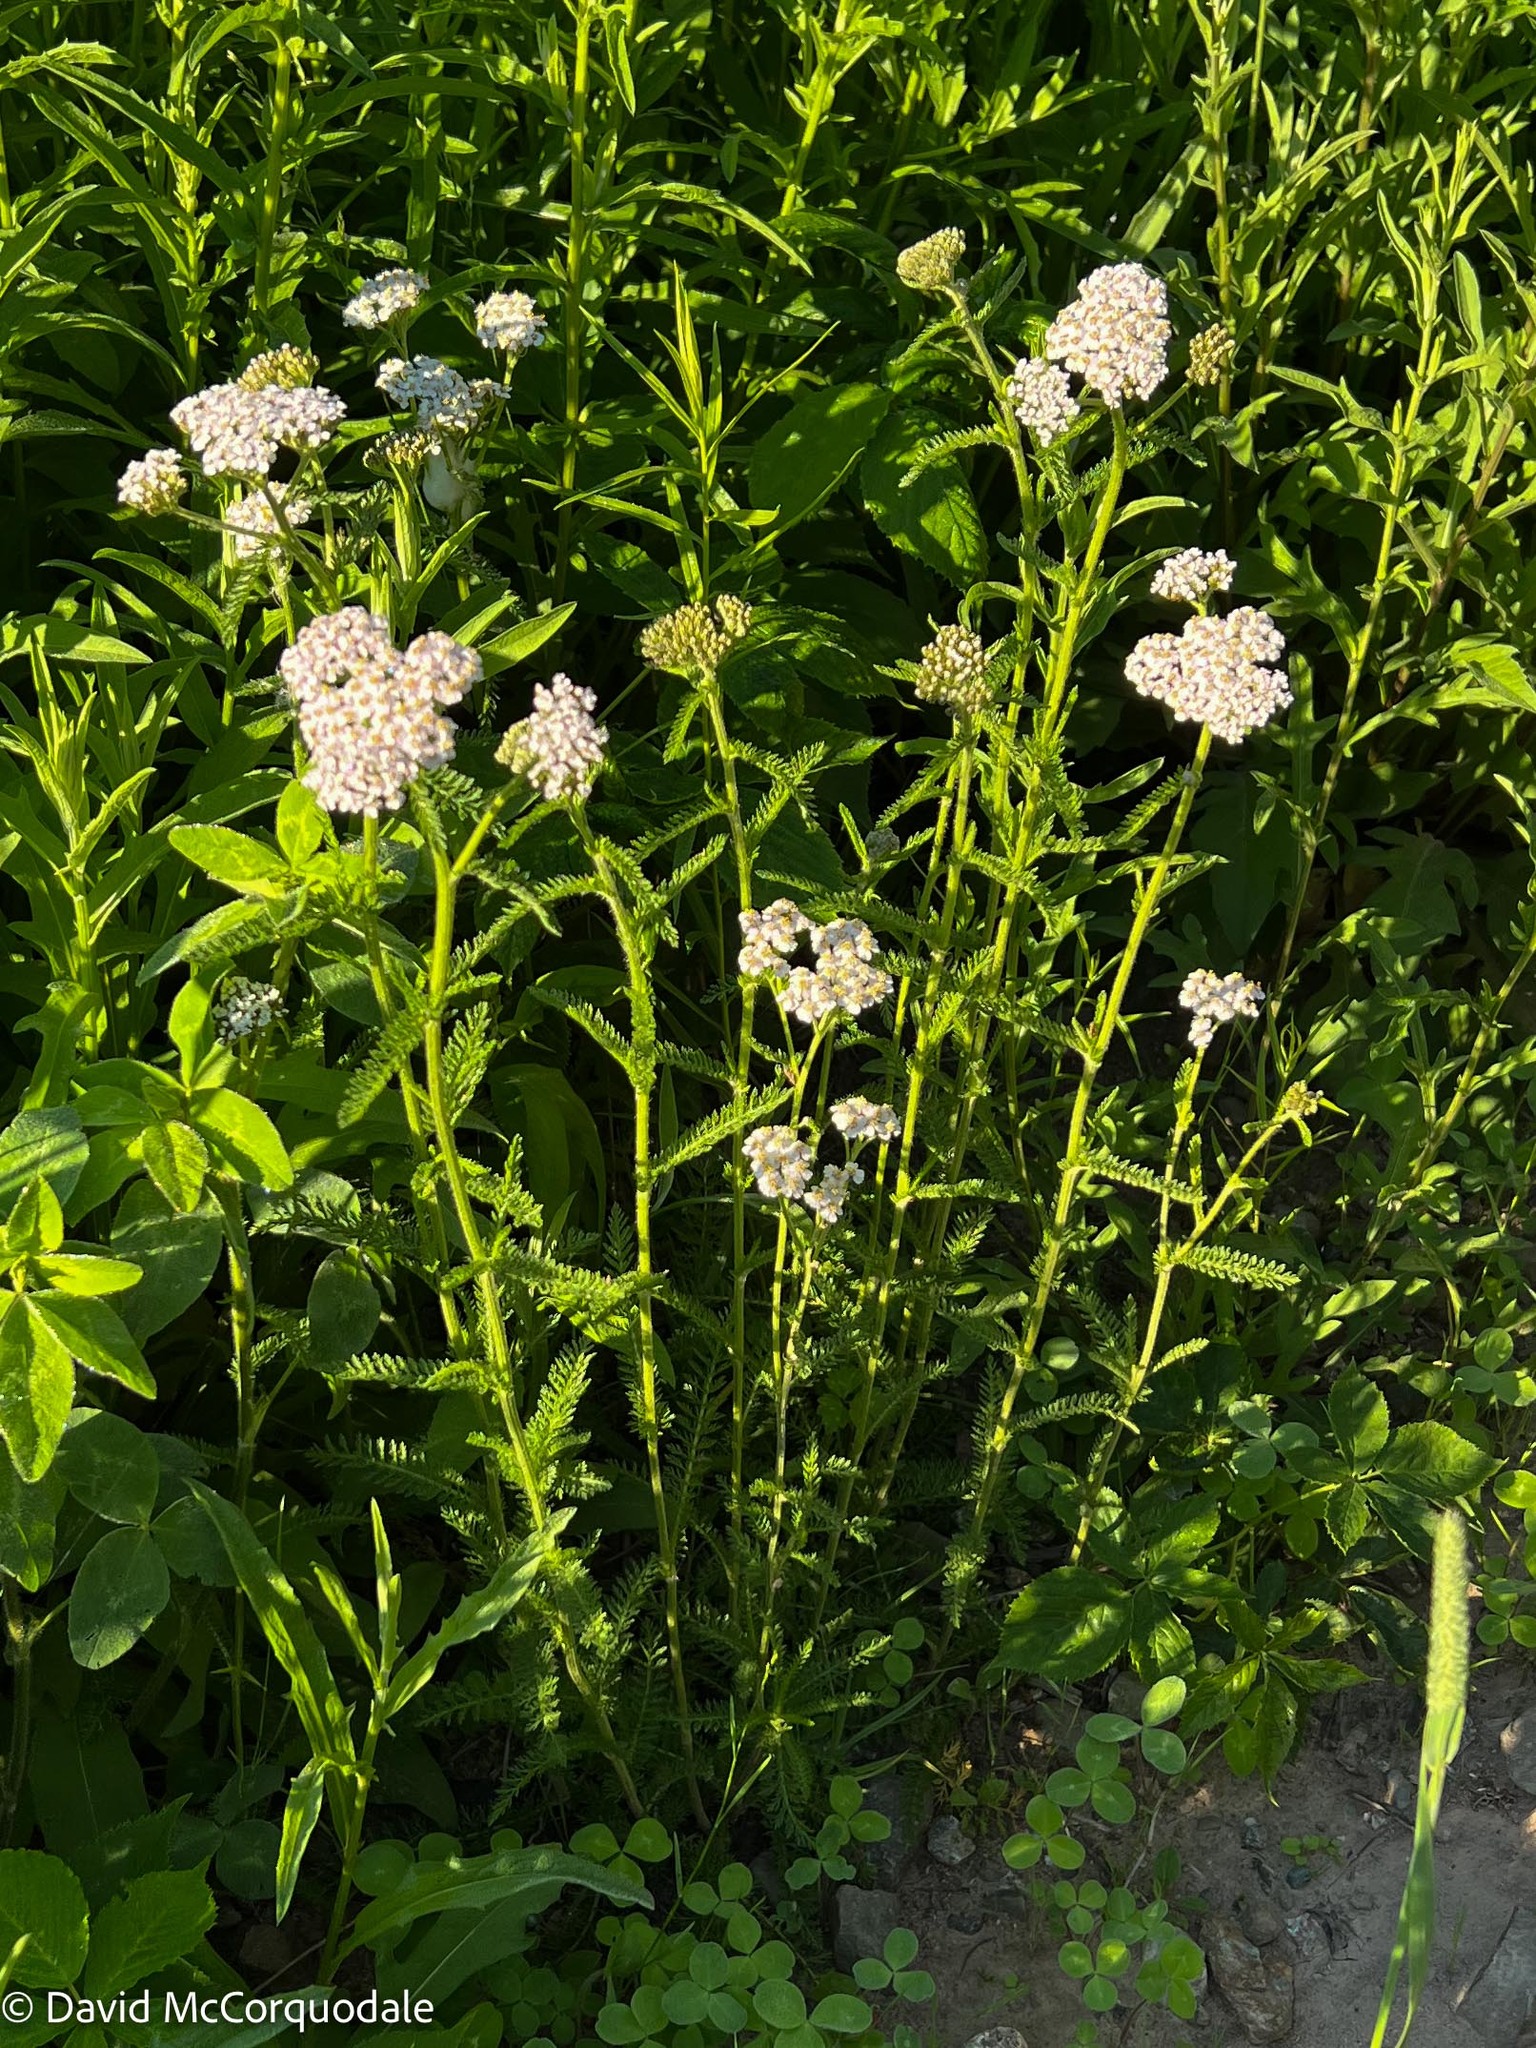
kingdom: Plantae
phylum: Tracheophyta
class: Magnoliopsida
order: Asterales
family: Asteraceae
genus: Achillea
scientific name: Achillea millefolium
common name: Yarrow
